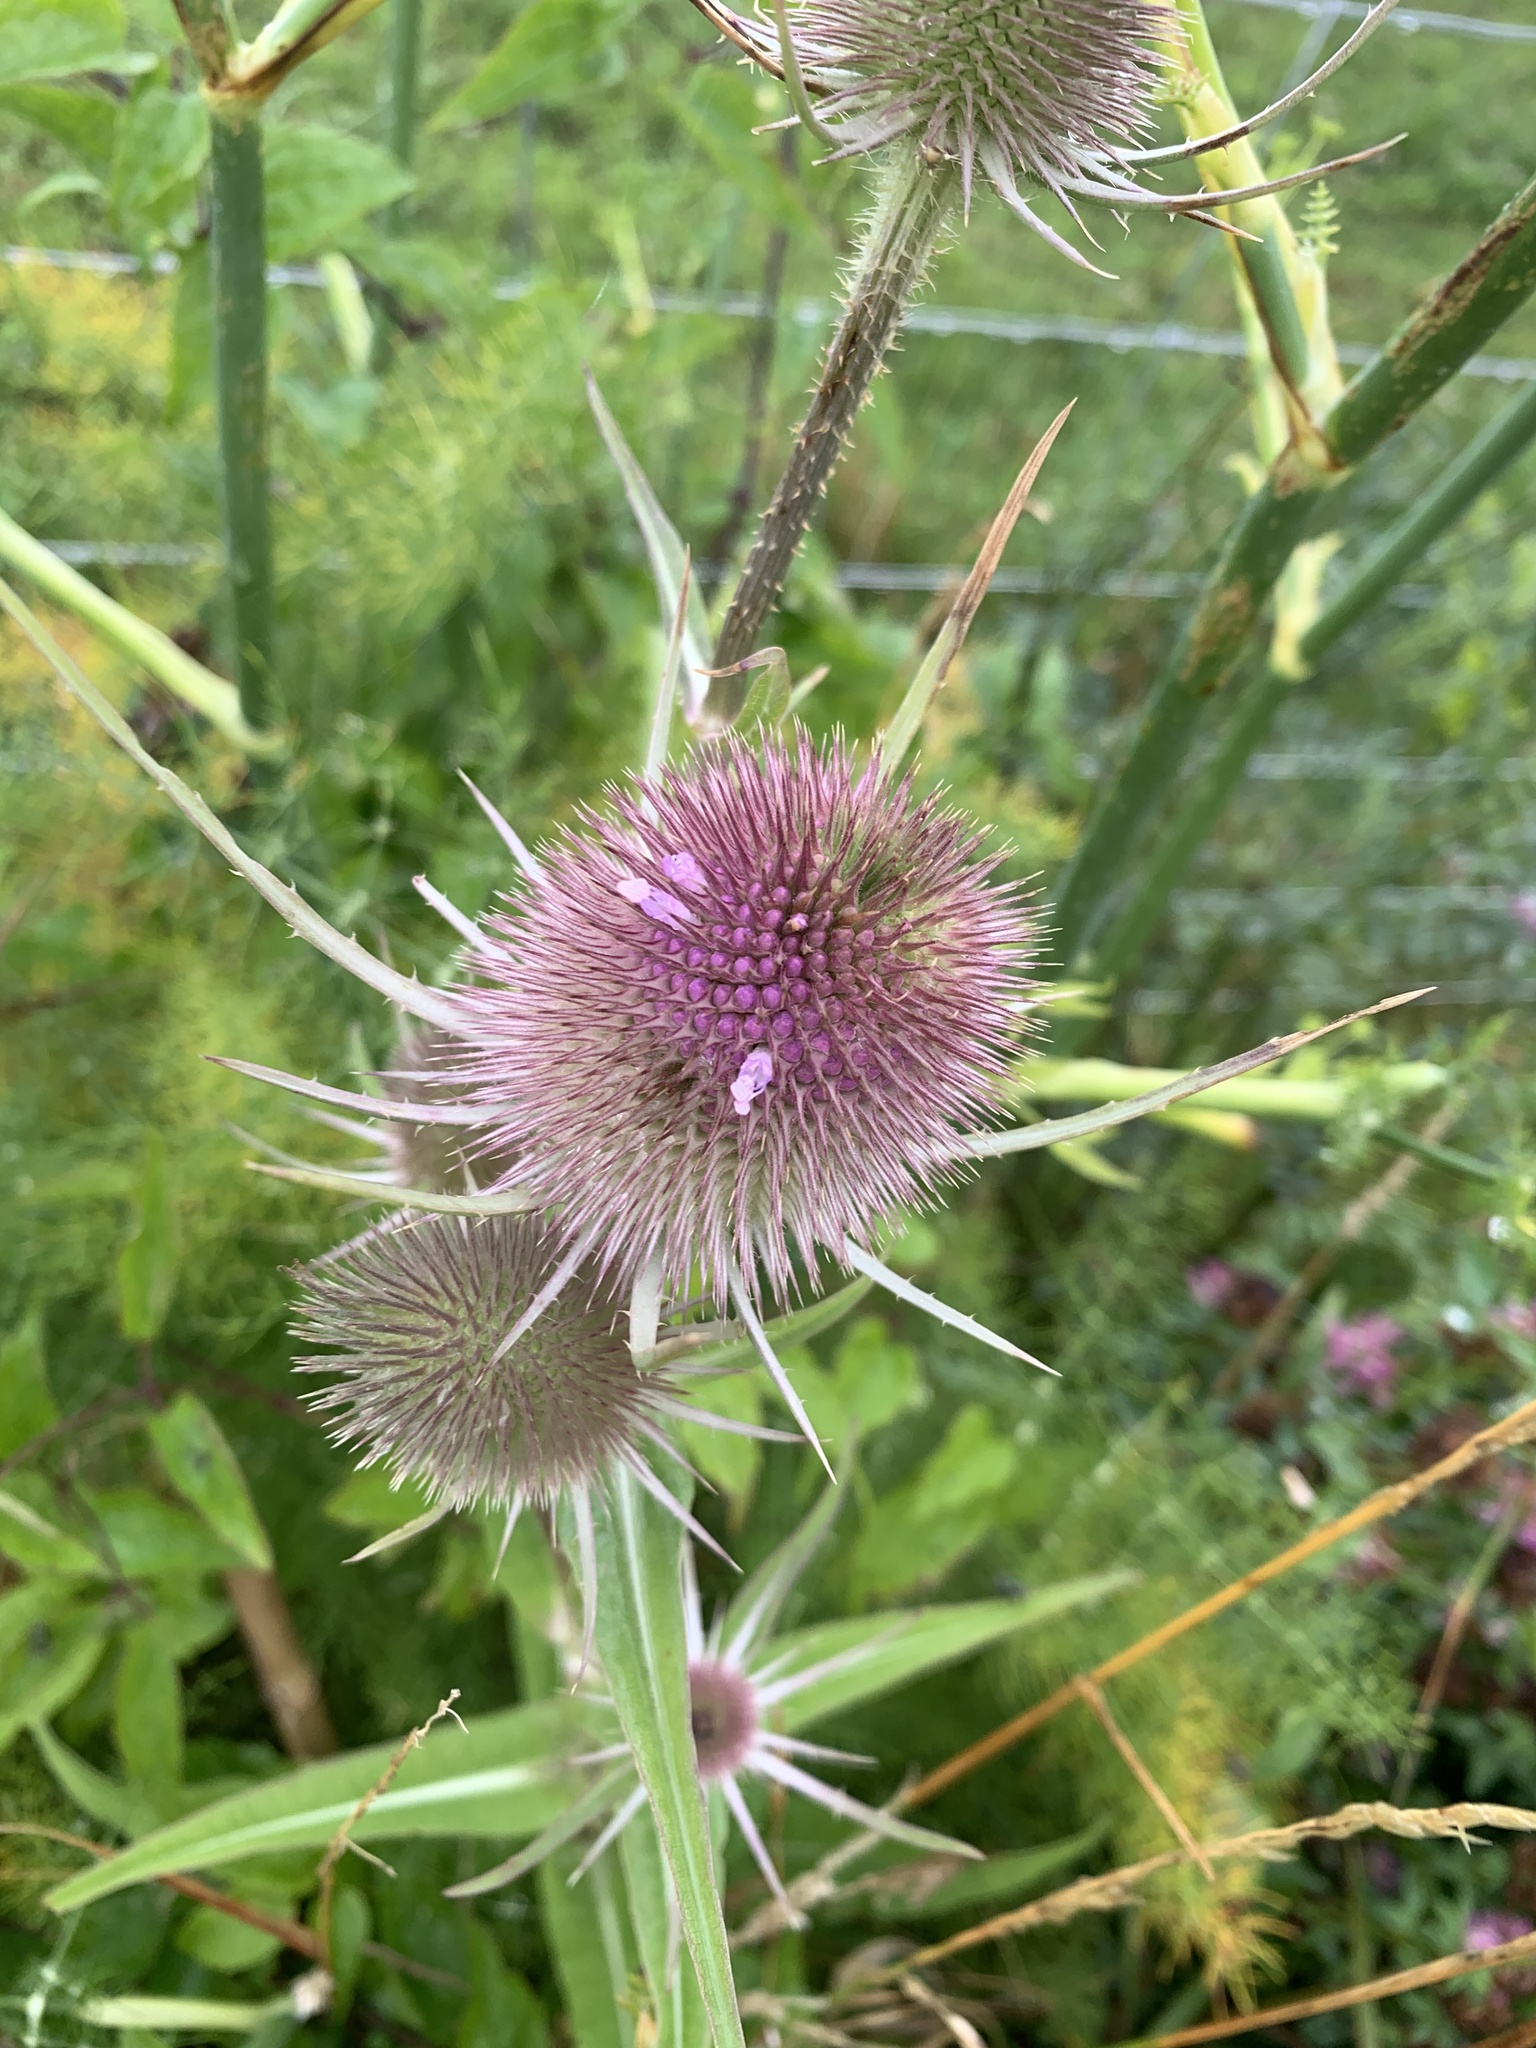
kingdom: Plantae
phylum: Tracheophyta
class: Magnoliopsida
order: Dipsacales
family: Caprifoliaceae
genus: Dipsacus
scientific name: Dipsacus fullonum
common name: Teasel
